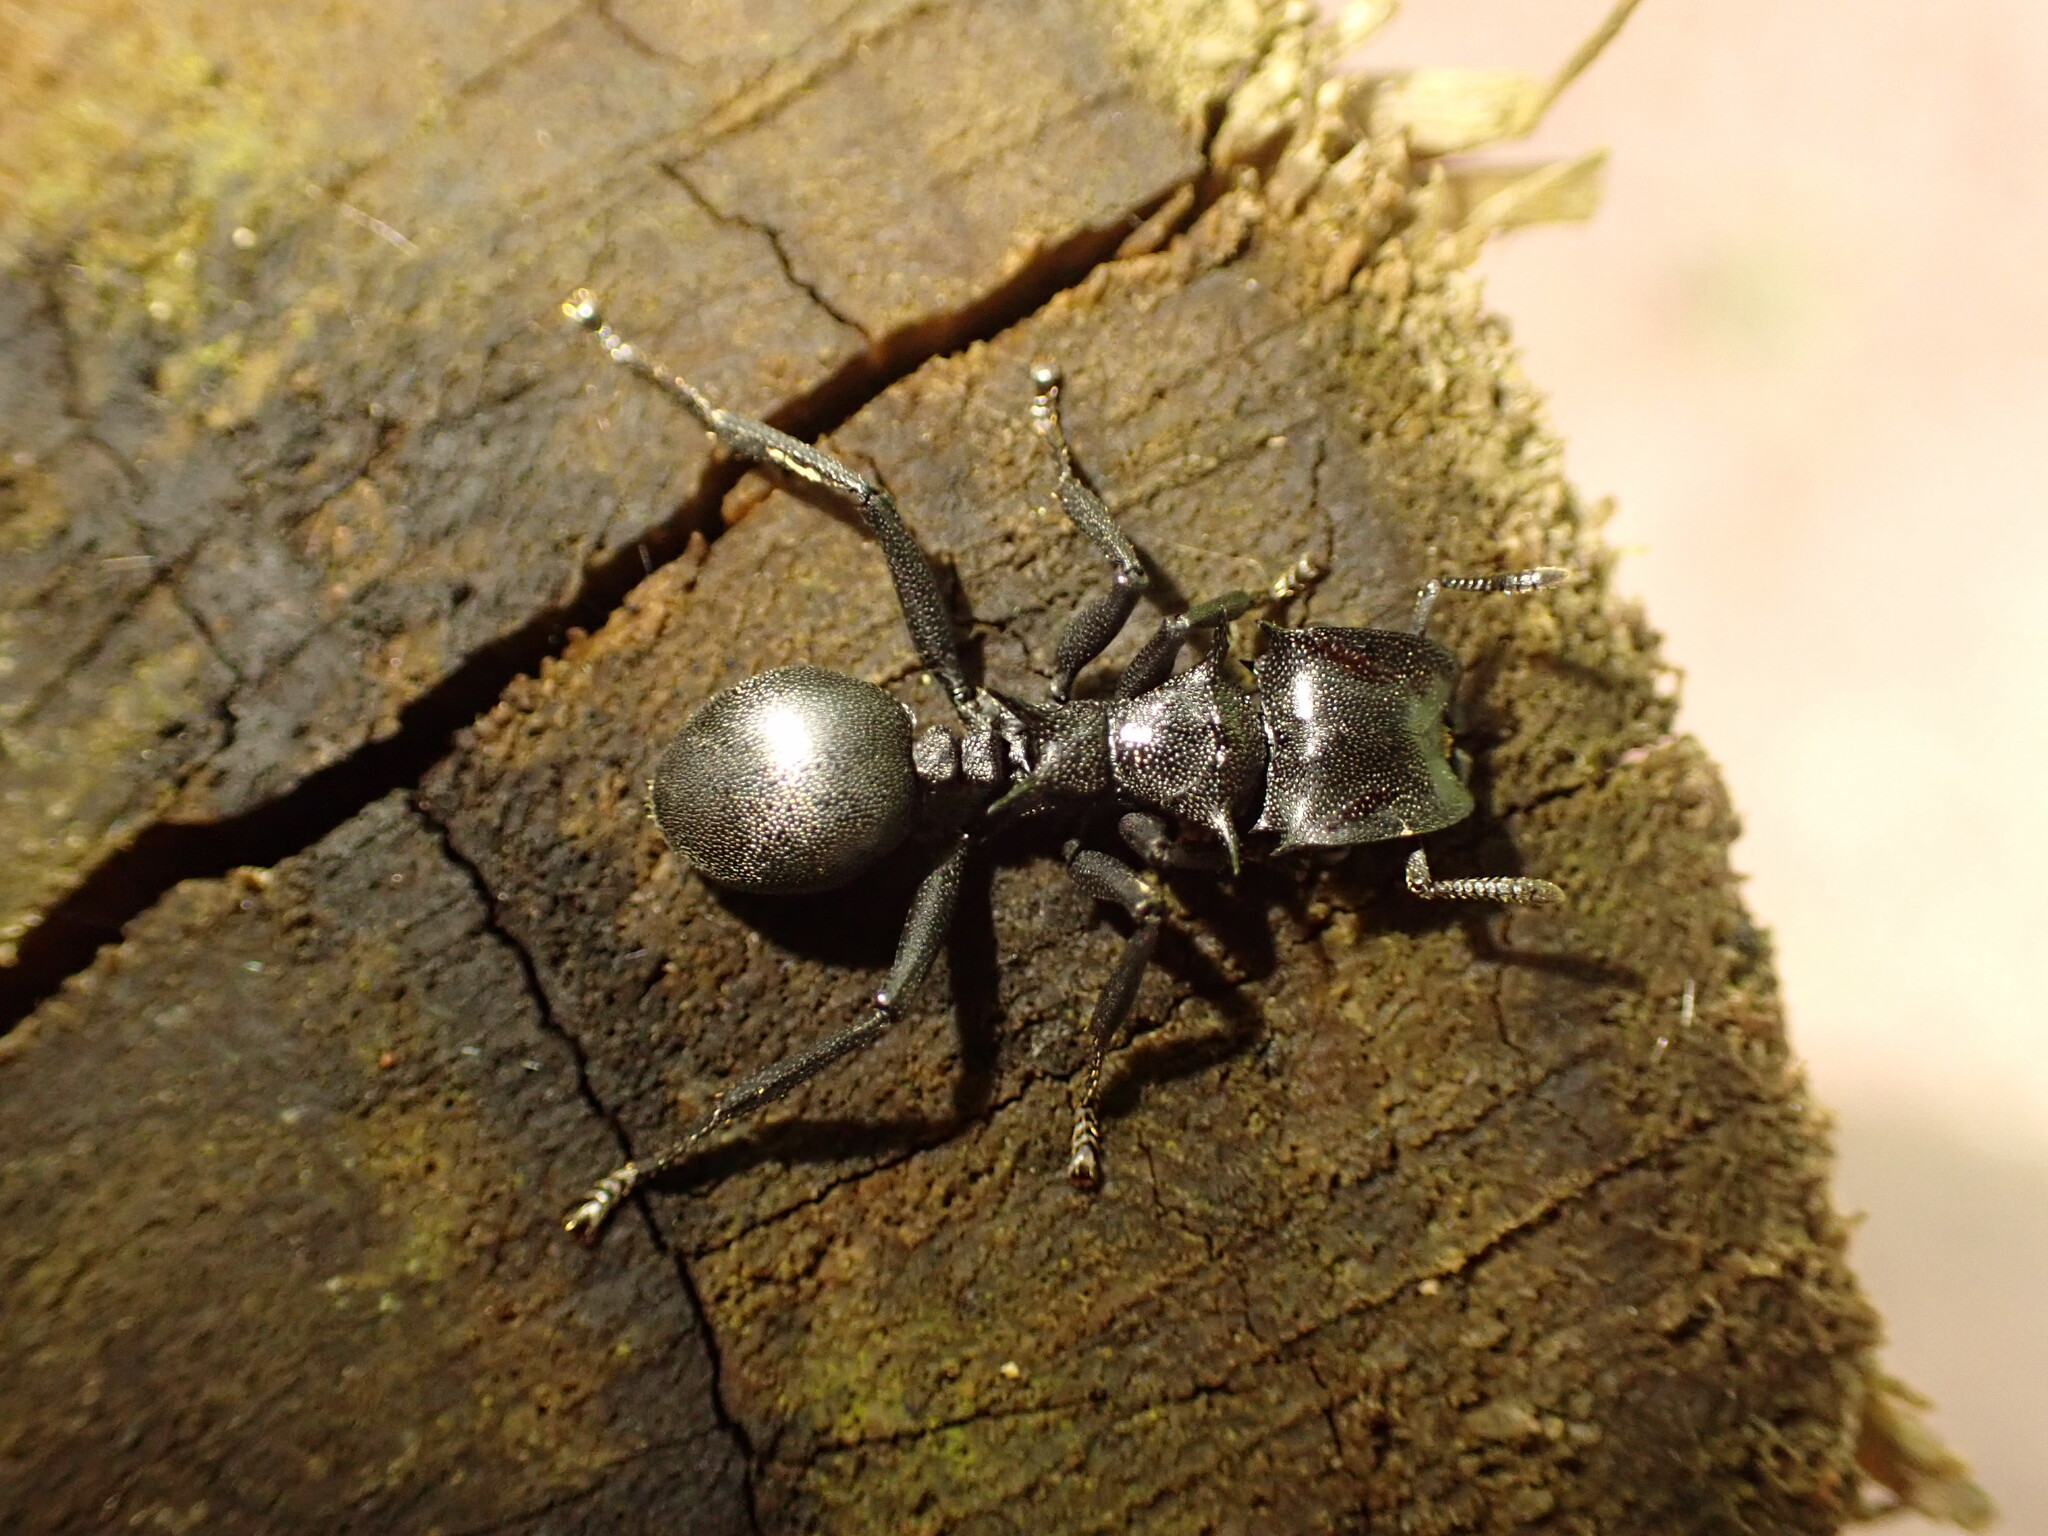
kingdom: Animalia
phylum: Arthropoda
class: Insecta
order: Hymenoptera
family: Formicidae
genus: Cephalotes
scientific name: Cephalotes atratus
